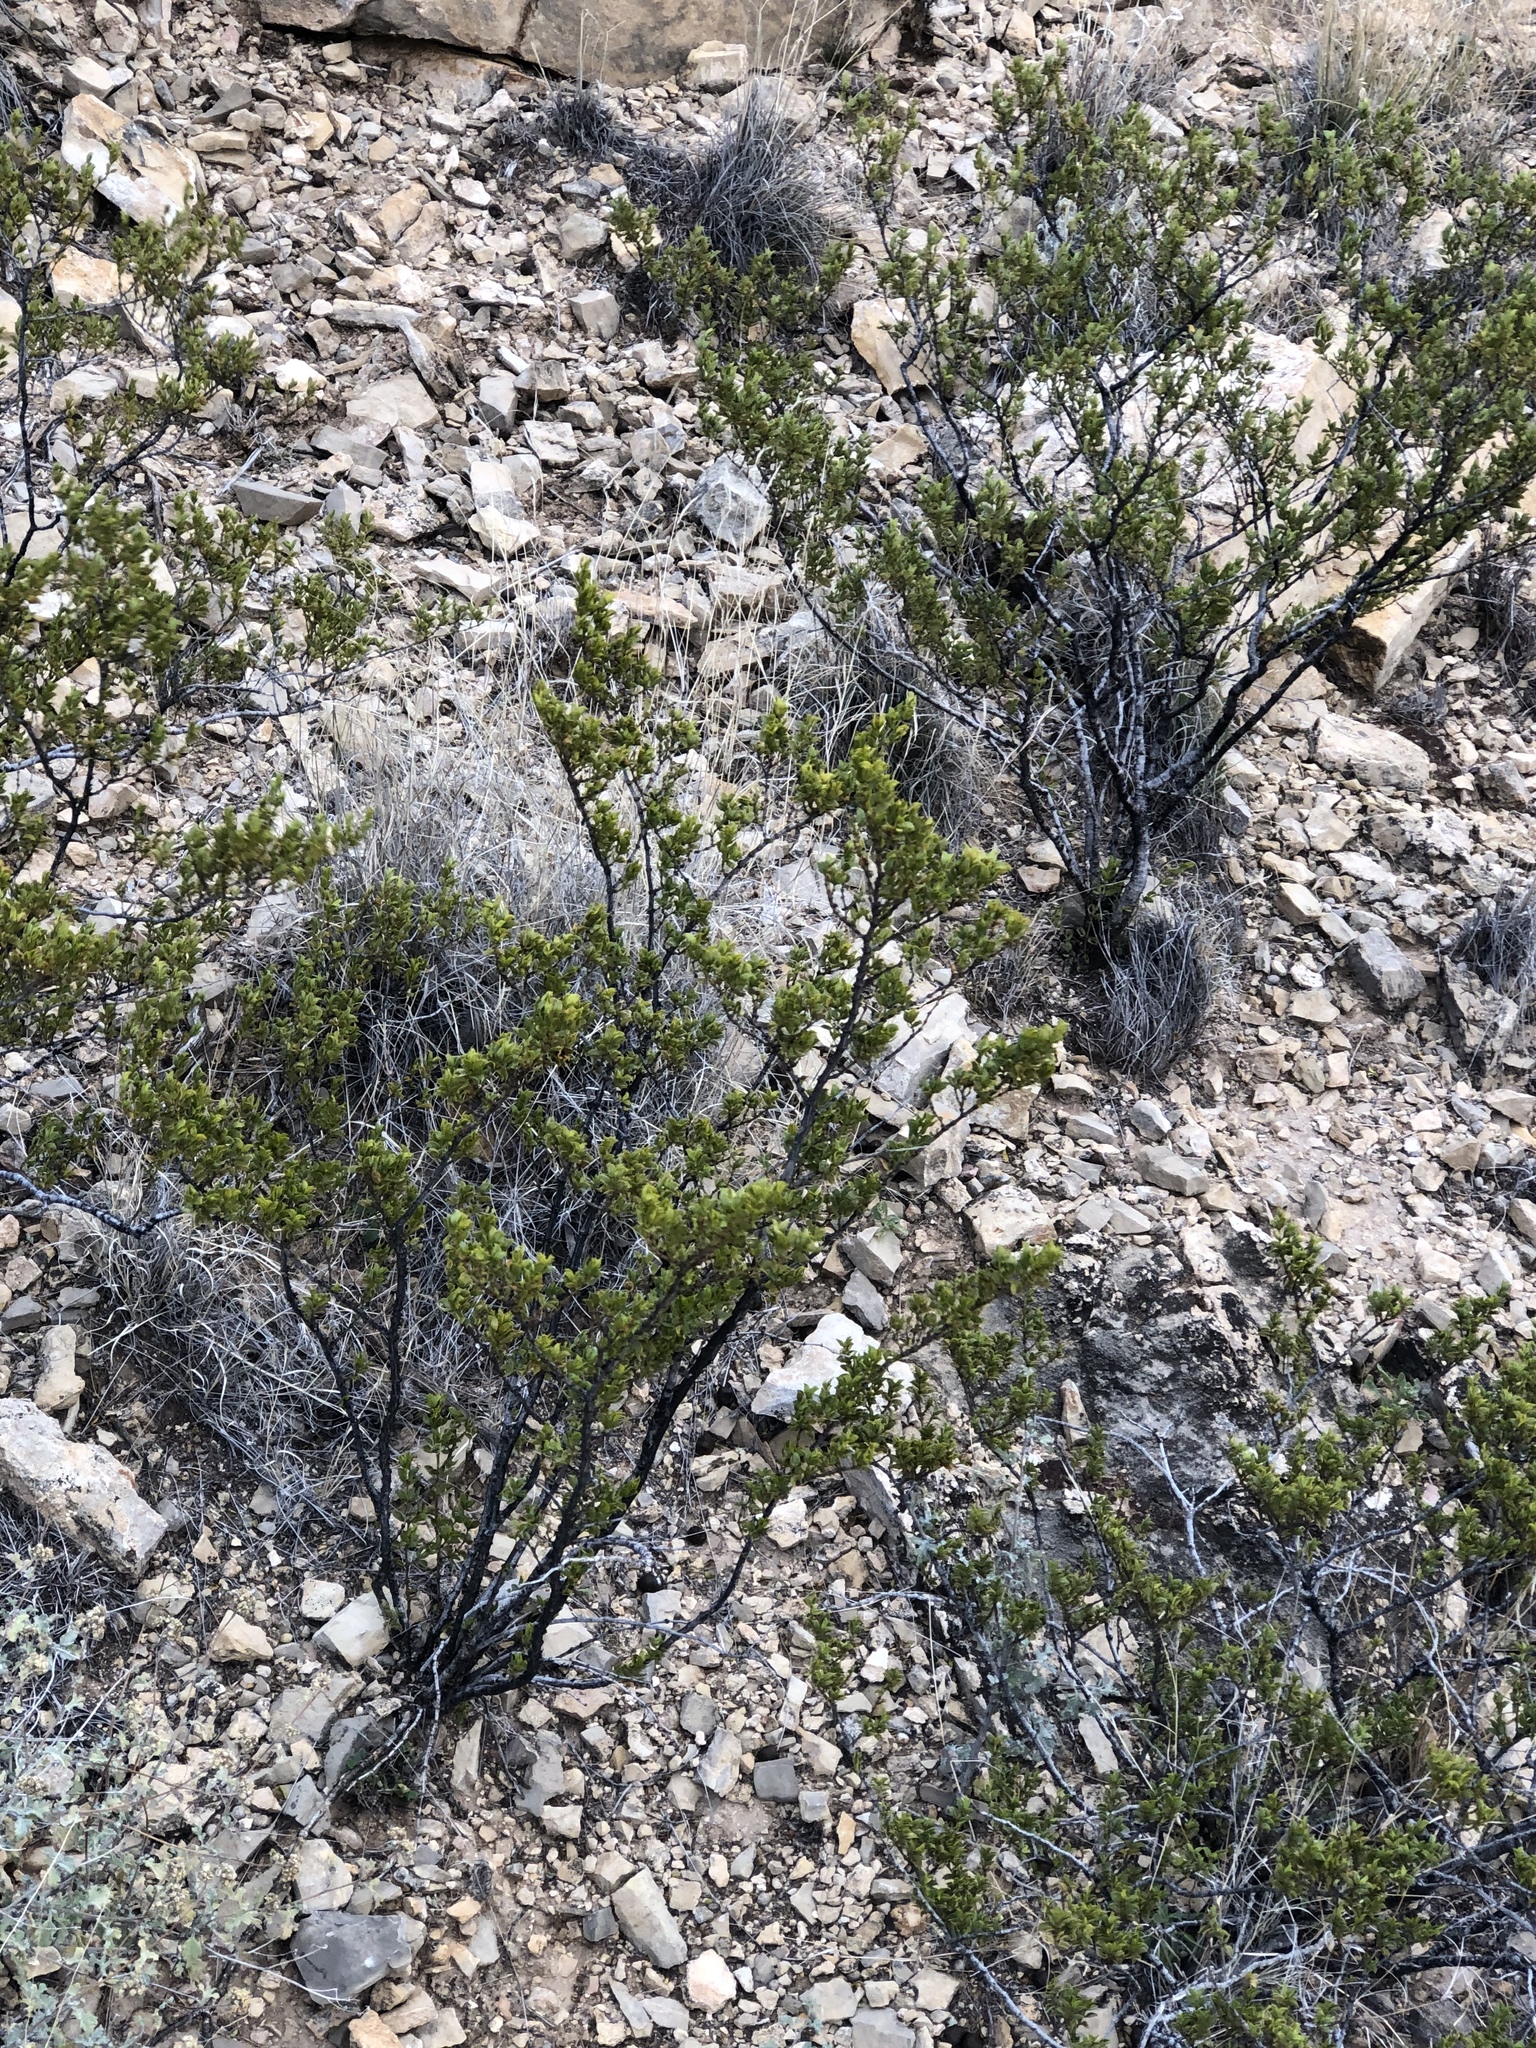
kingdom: Plantae
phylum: Tracheophyta
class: Magnoliopsida
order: Zygophyllales
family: Zygophyllaceae
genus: Larrea
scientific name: Larrea tridentata
